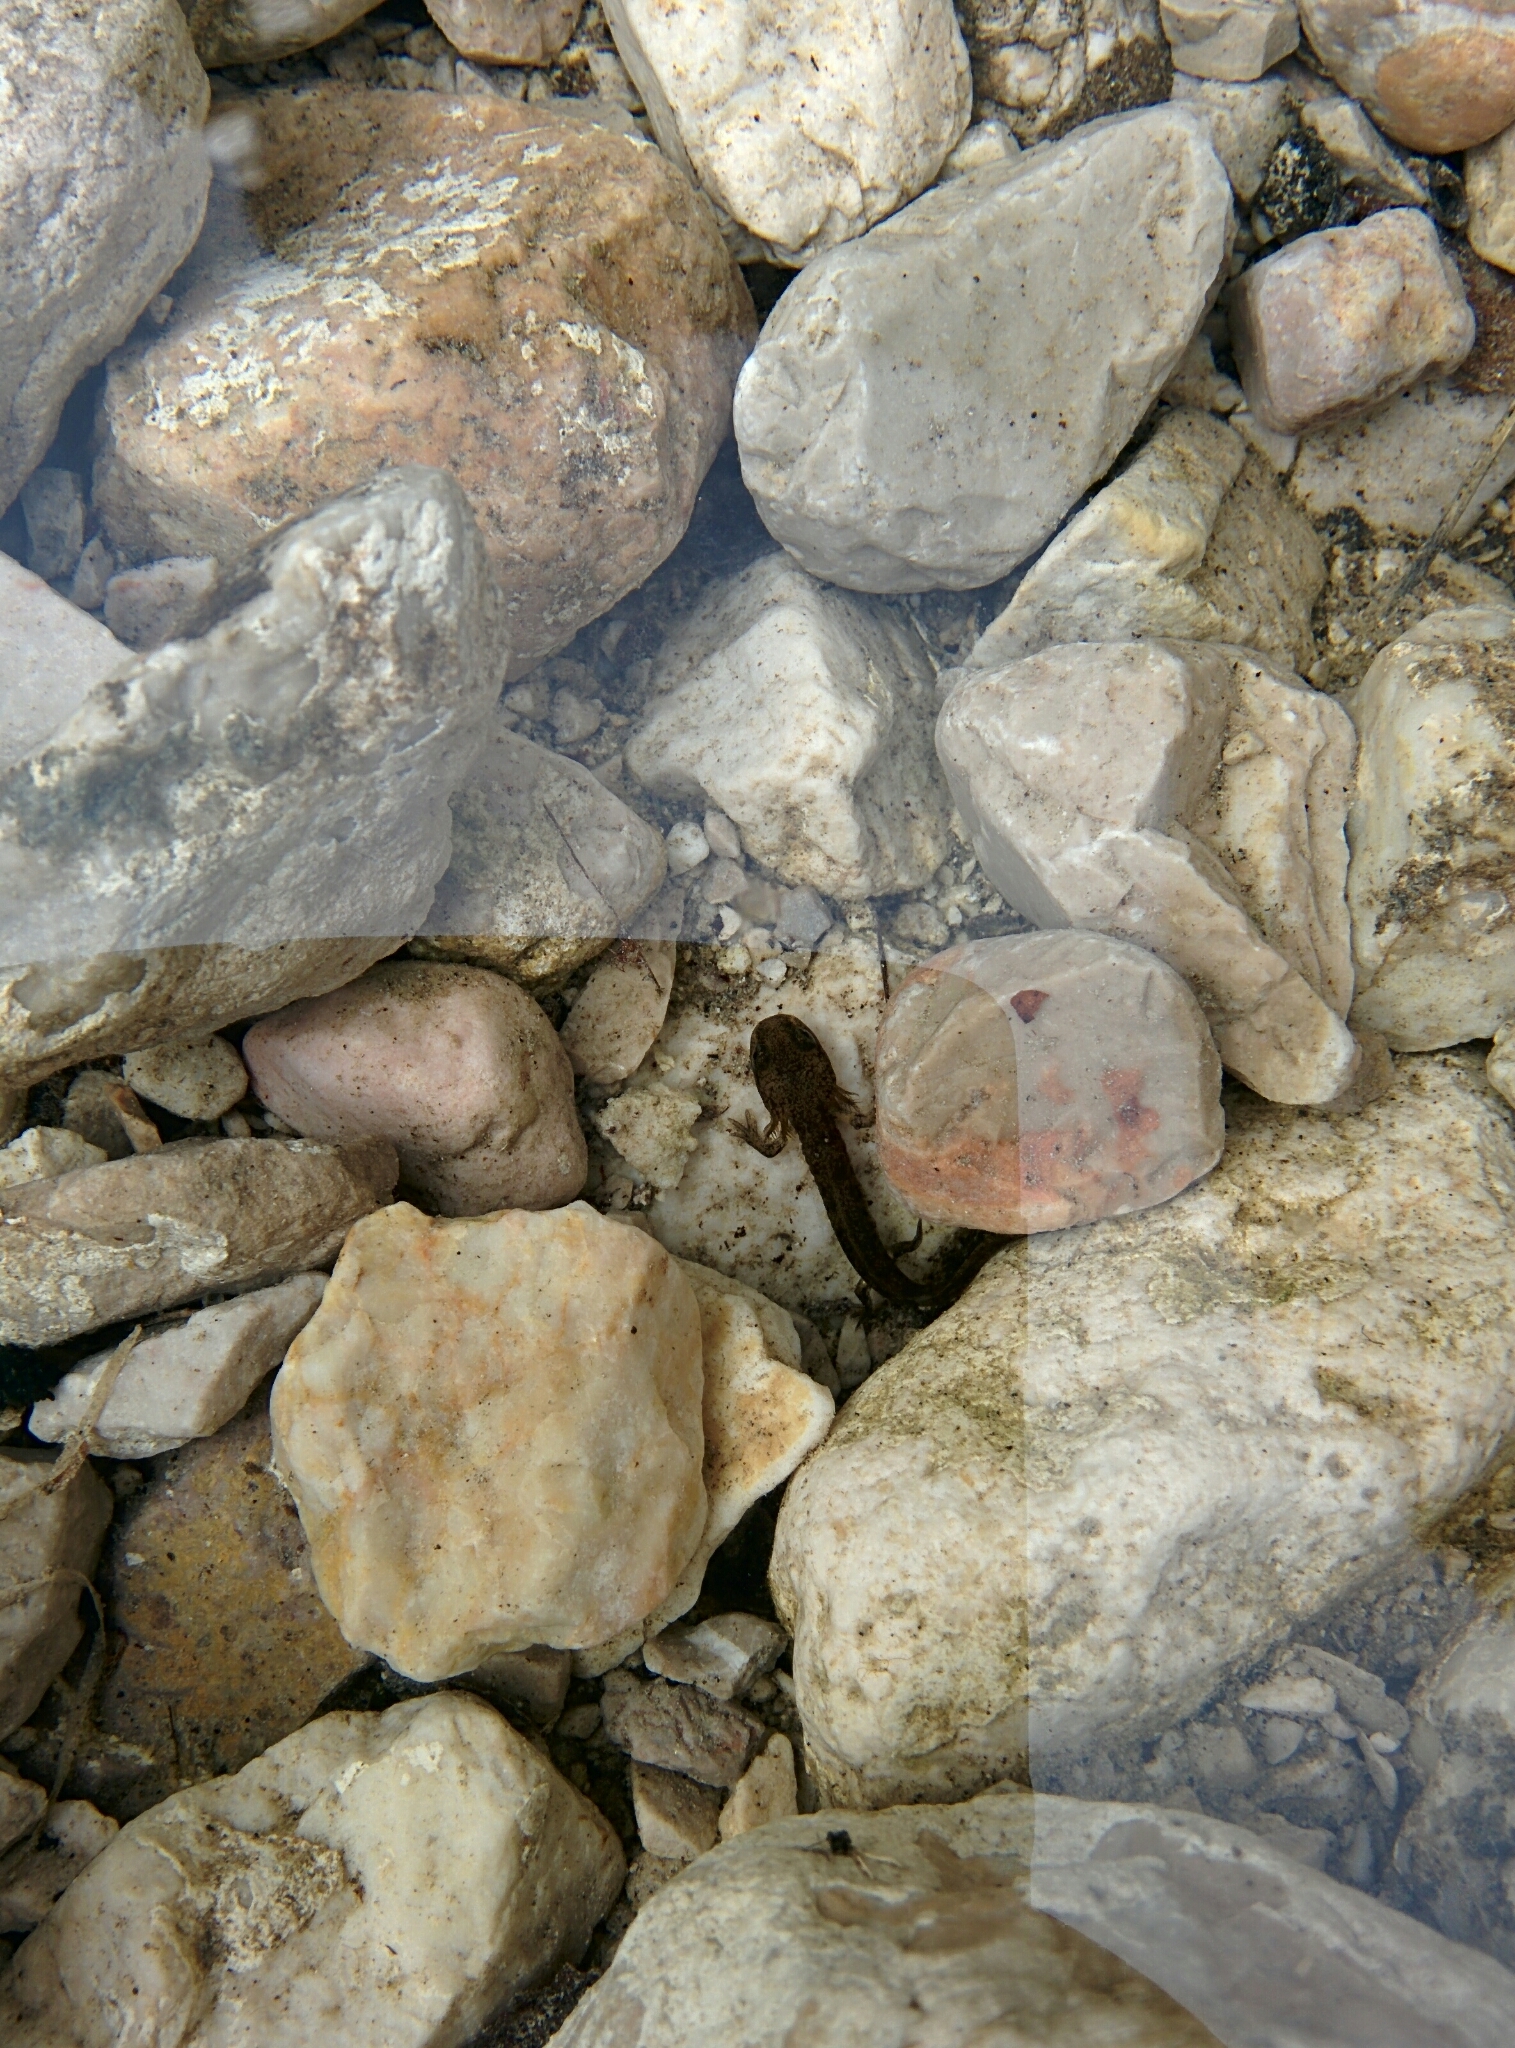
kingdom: Animalia
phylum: Chordata
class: Amphibia
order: Caudata
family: Salamandridae
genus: Salamandra
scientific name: Salamandra salamandra
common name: Fire salamander
